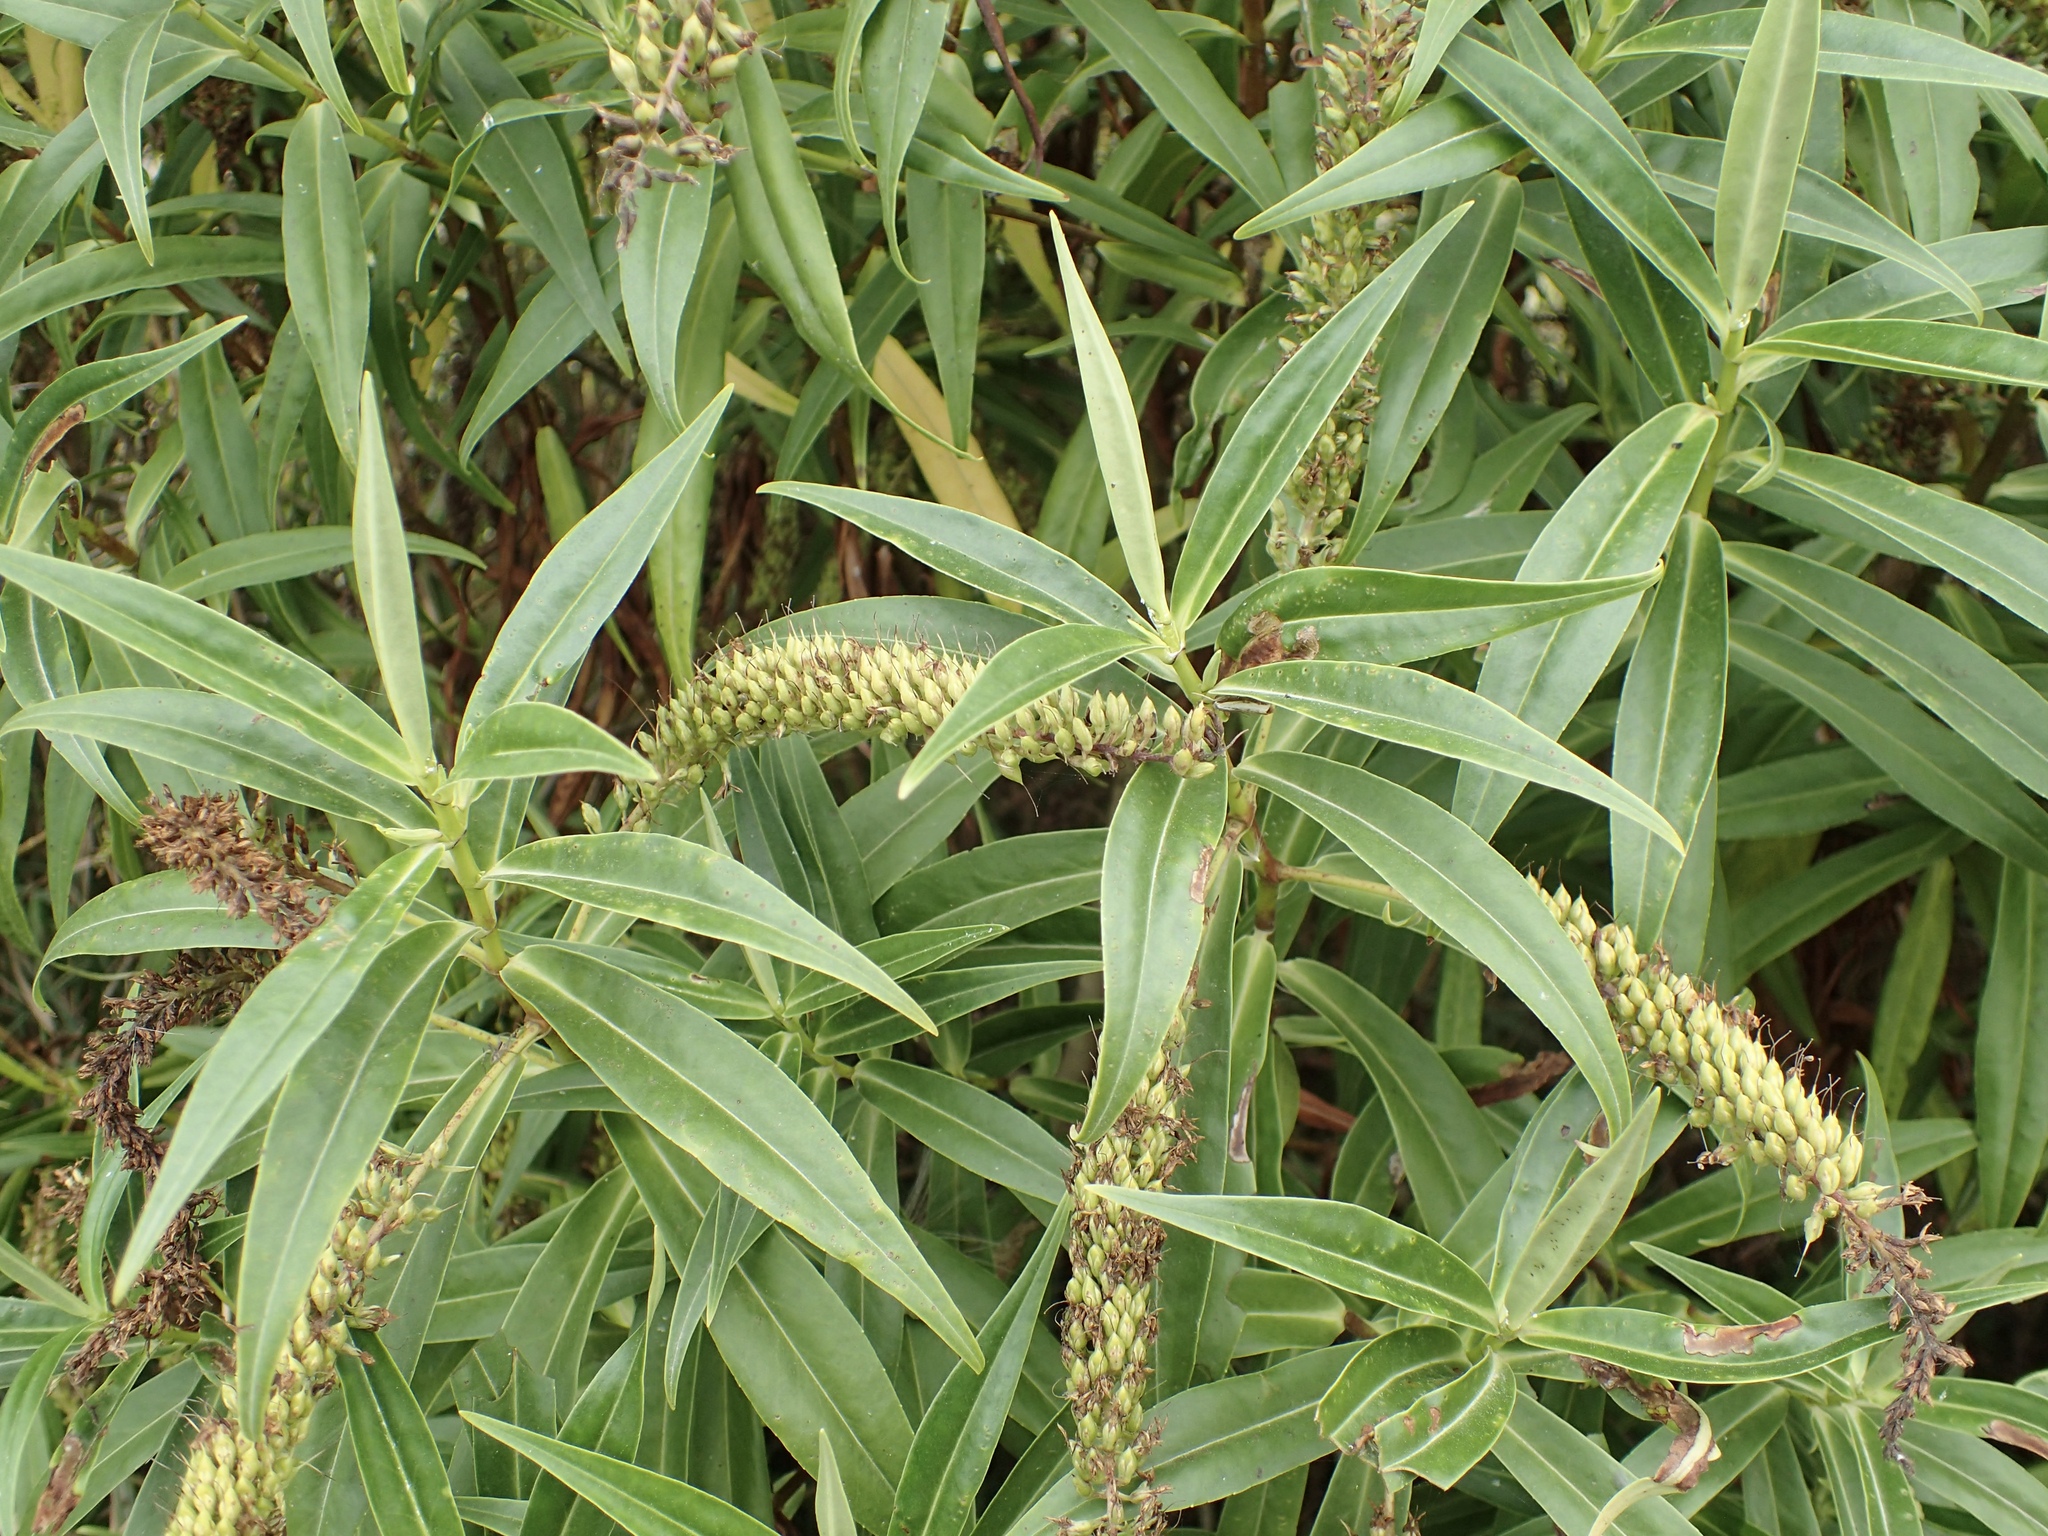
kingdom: Plantae
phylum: Tracheophyta
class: Magnoliopsida
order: Lamiales
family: Plantaginaceae
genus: Veronica
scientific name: Veronica salicifolia
